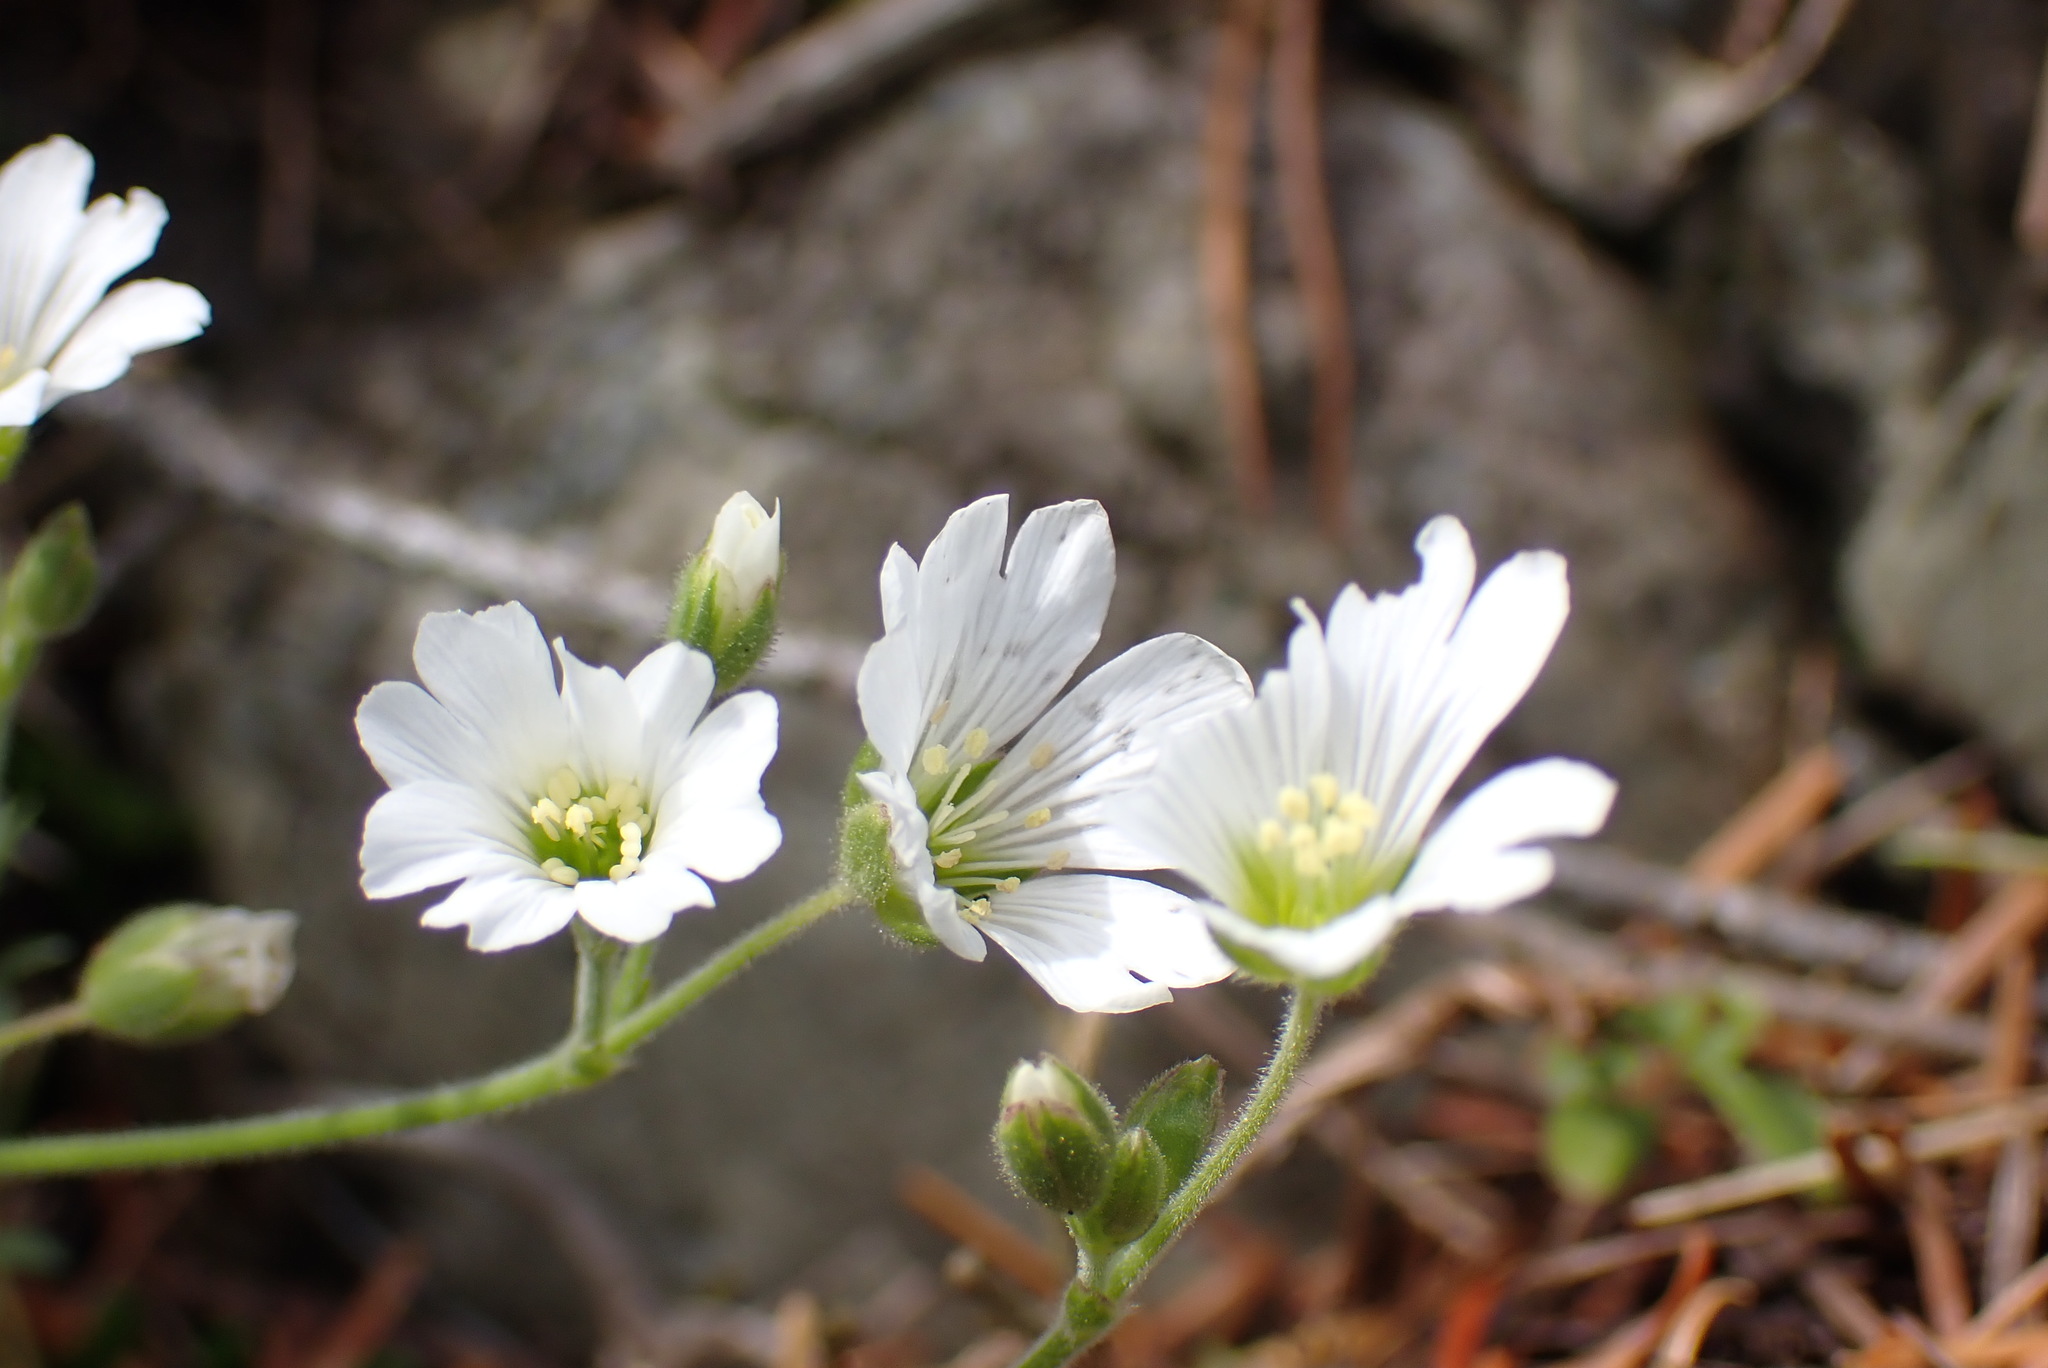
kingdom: Plantae
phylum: Tracheophyta
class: Magnoliopsida
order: Caryophyllales
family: Caryophyllaceae
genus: Cerastium
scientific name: Cerastium arvense
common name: Field mouse-ear
